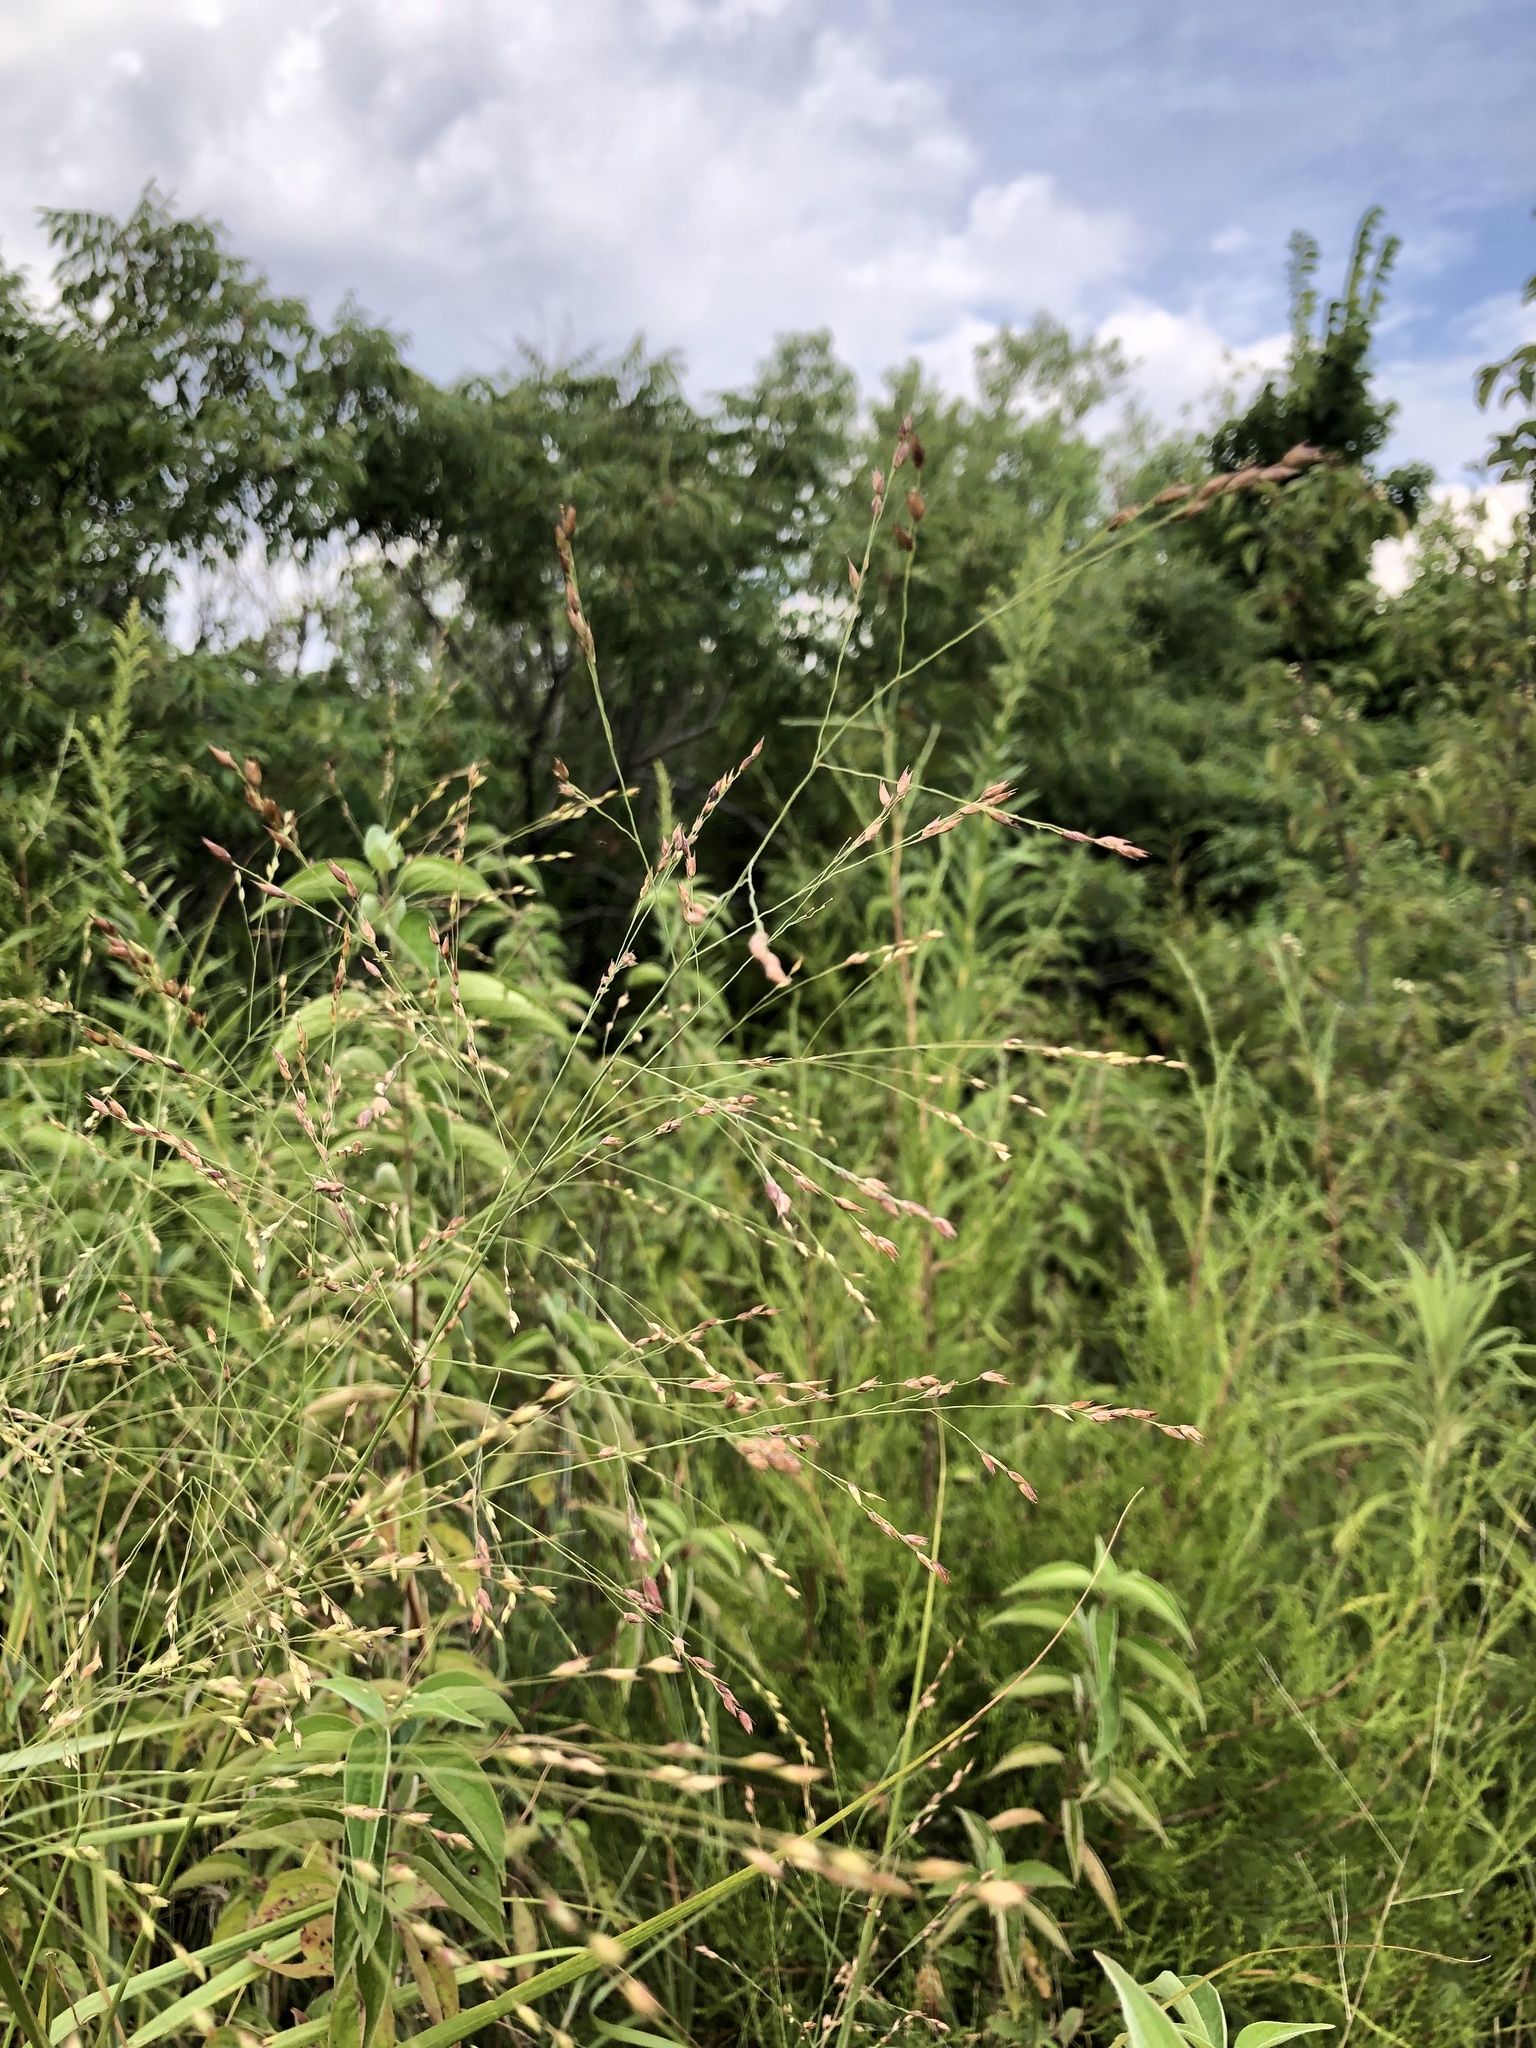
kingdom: Plantae
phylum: Tracheophyta
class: Liliopsida
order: Poales
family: Poaceae
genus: Panicum
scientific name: Panicum virgatum
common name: Switchgrass
